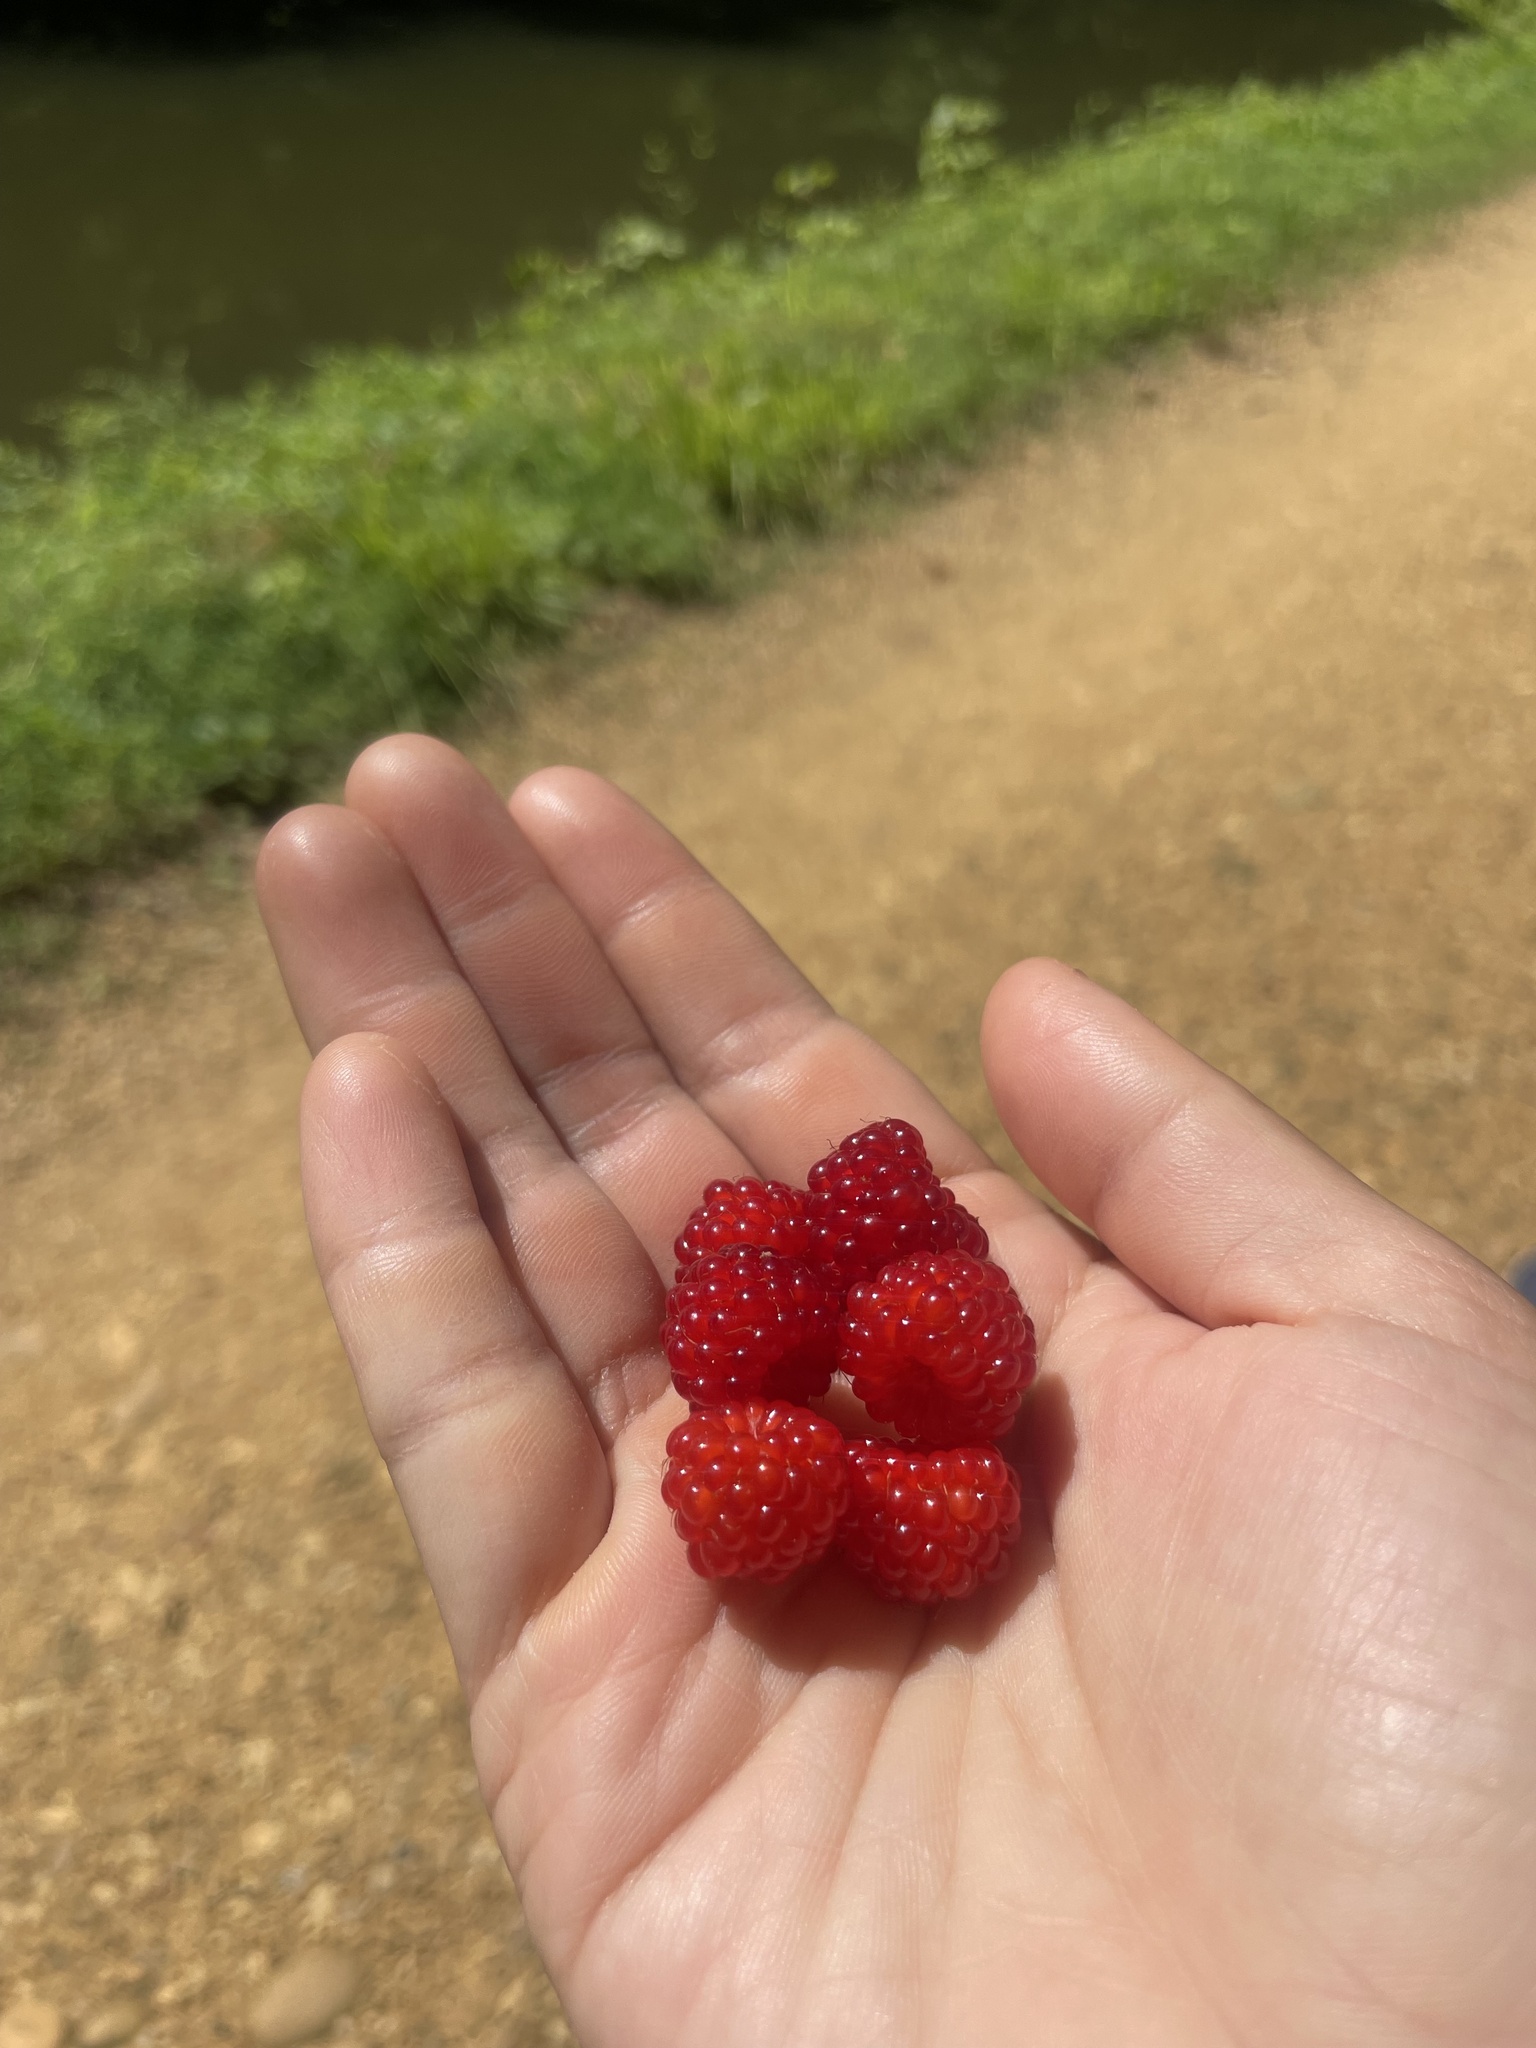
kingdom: Plantae
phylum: Tracheophyta
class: Magnoliopsida
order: Rosales
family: Rosaceae
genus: Rubus
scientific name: Rubus phoenicolasius
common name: Japanese wineberry
